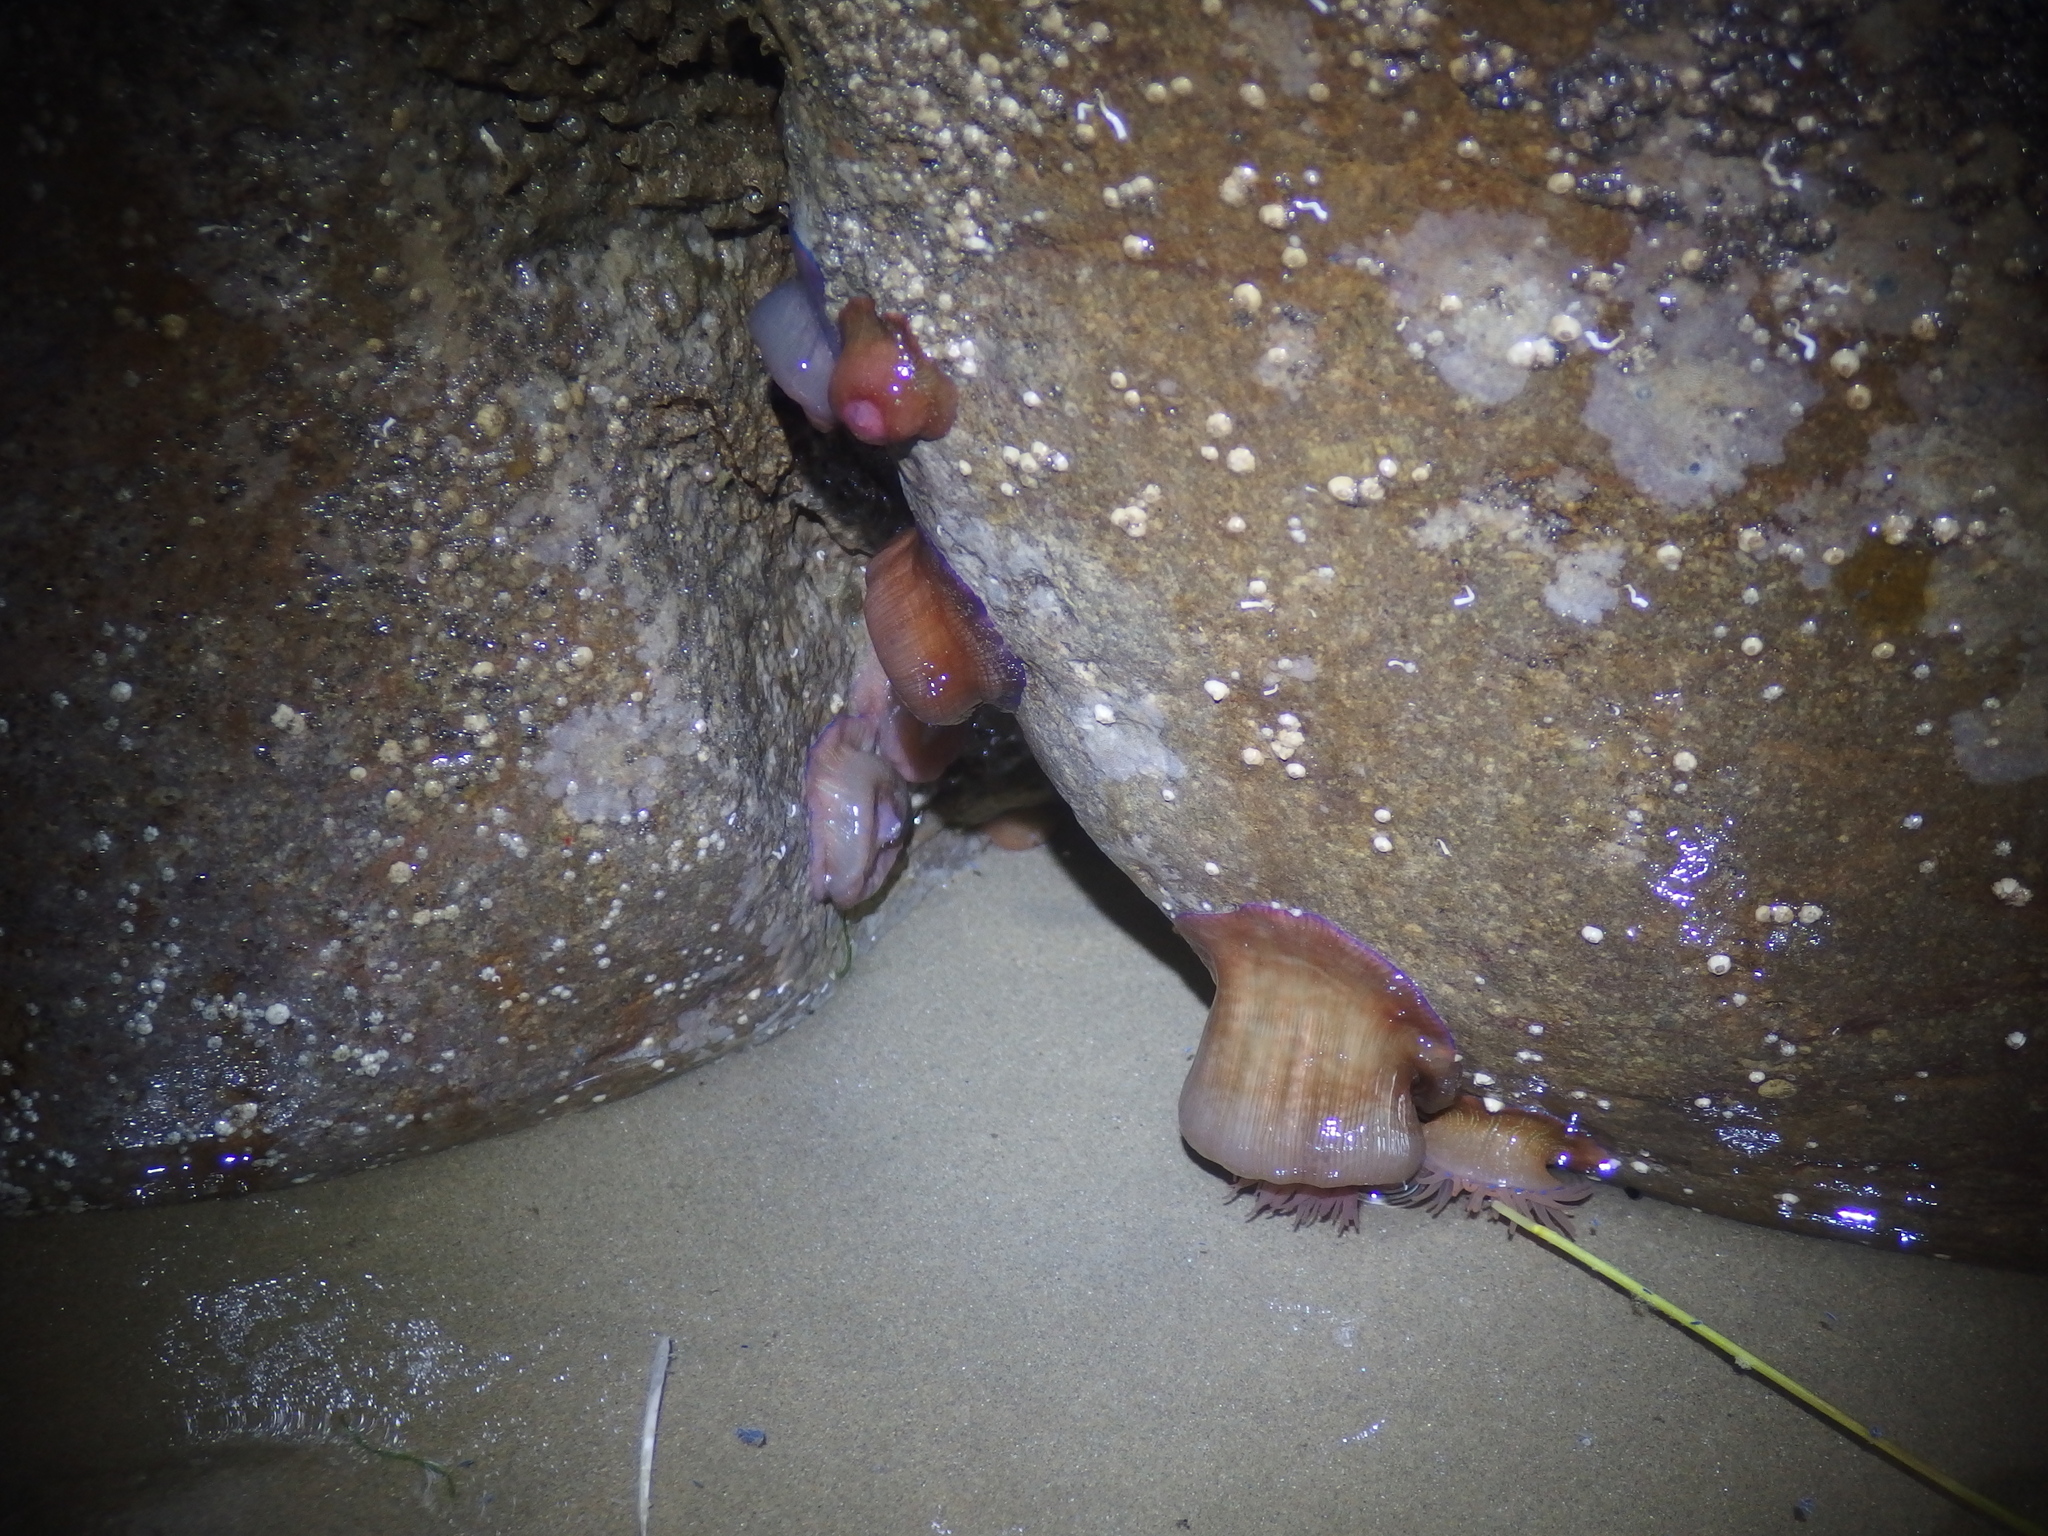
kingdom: Animalia
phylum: Cnidaria
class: Anthozoa
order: Actiniaria
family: Actiniidae
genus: Actinia
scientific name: Actinia equina
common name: Beadlet anemone
